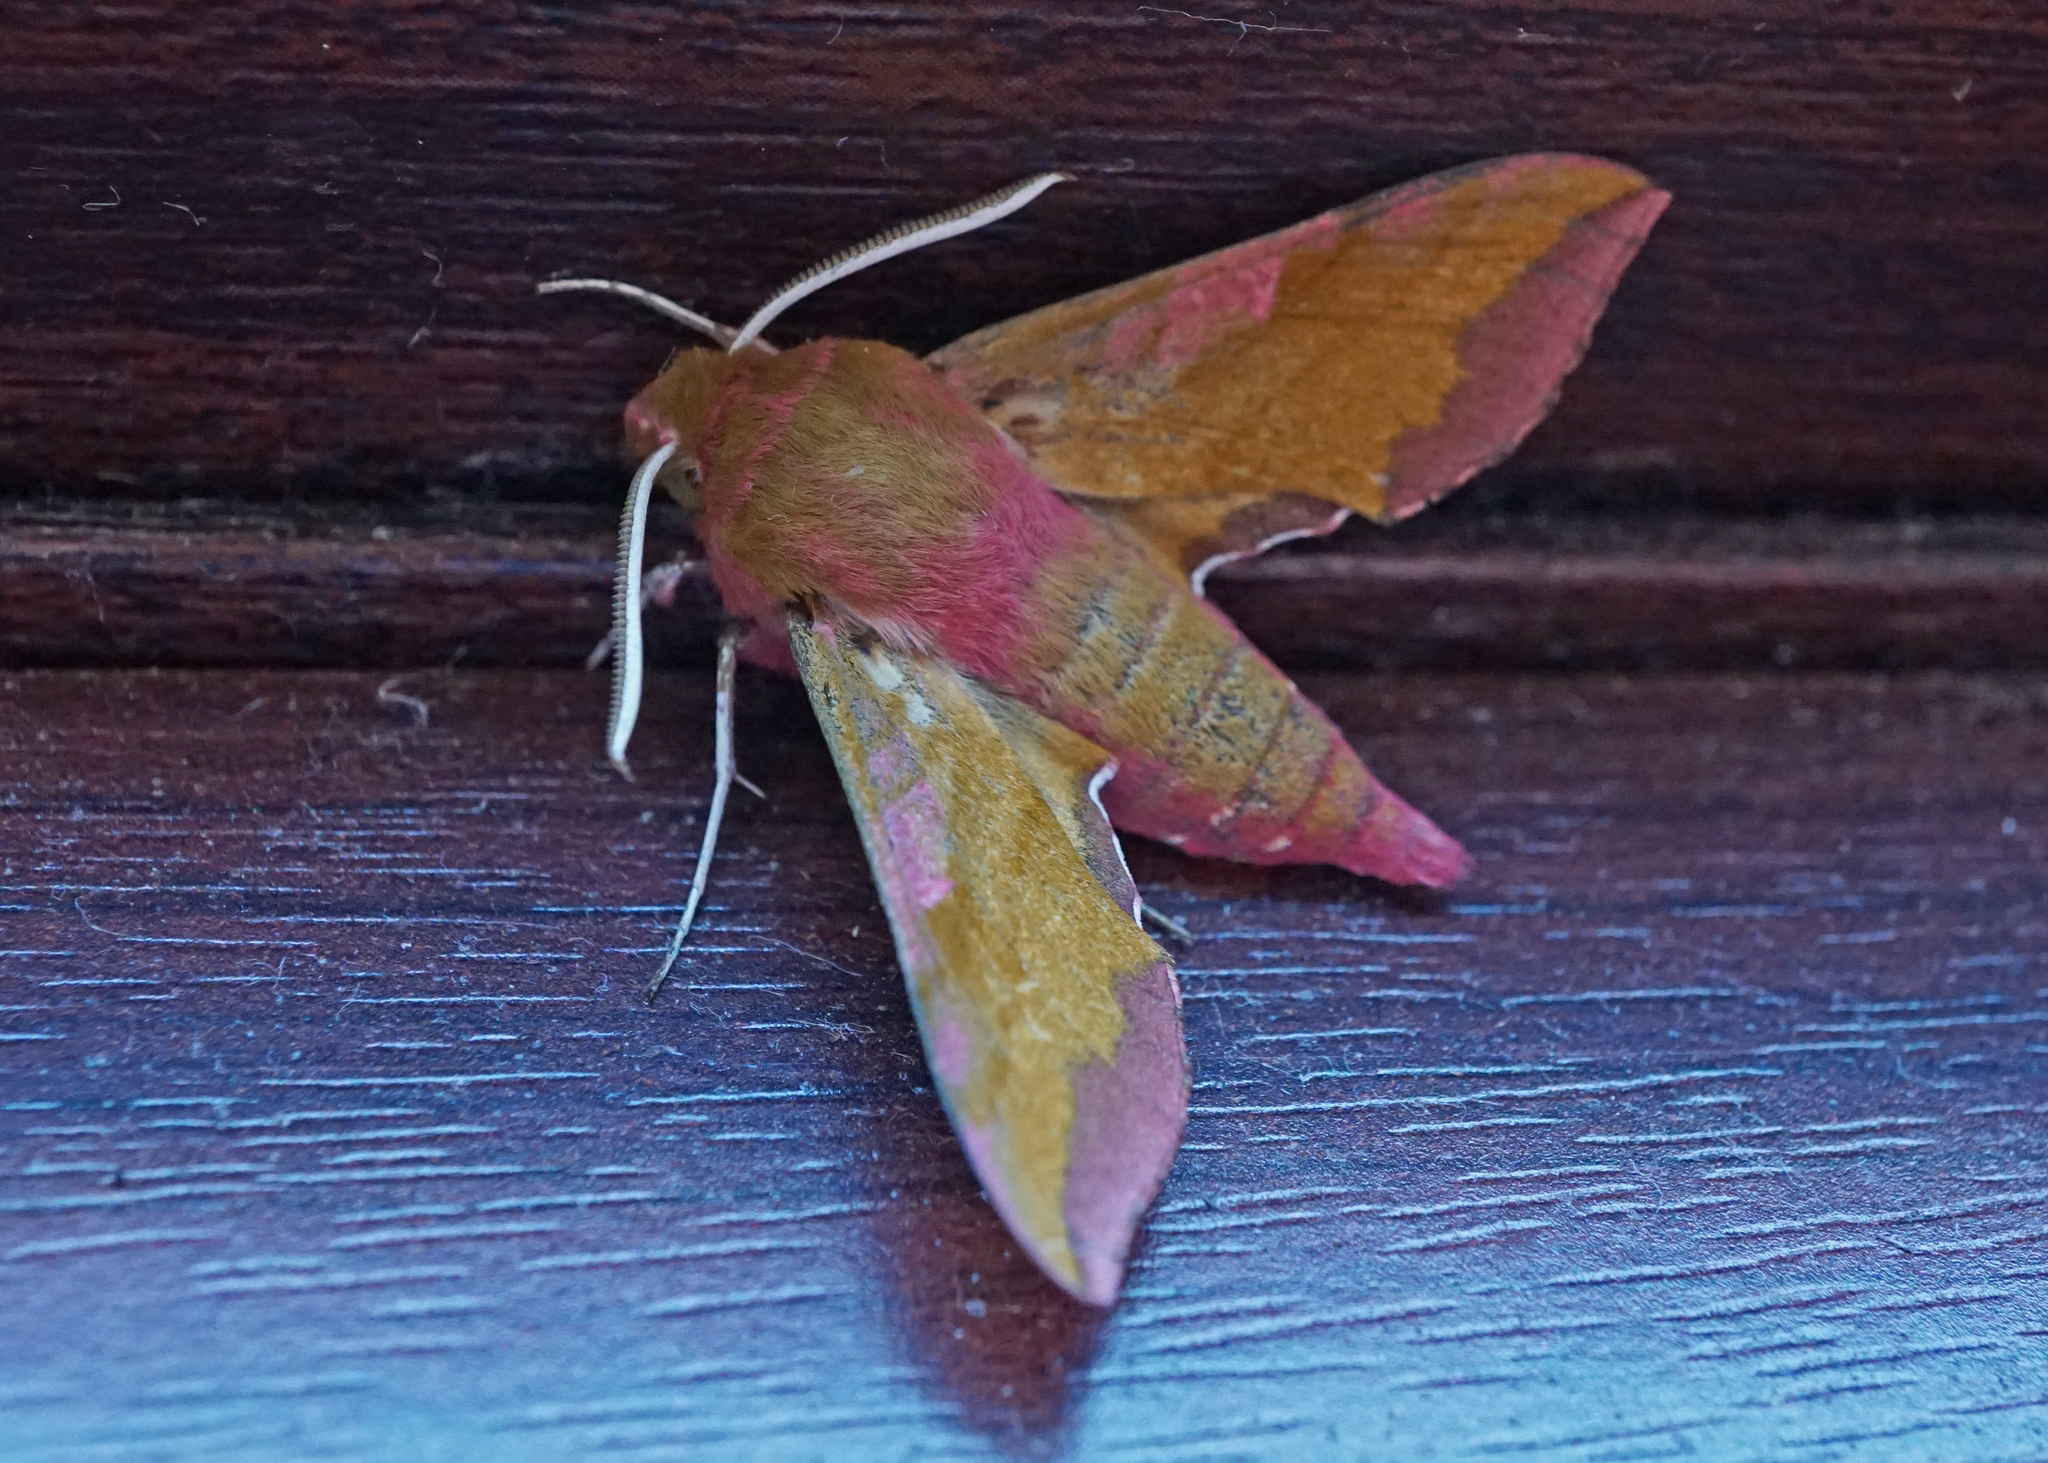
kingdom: Animalia
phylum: Arthropoda
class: Insecta
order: Lepidoptera
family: Sphingidae
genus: Deilephila
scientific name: Deilephila porcellus
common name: Small elephant hawk-moth
